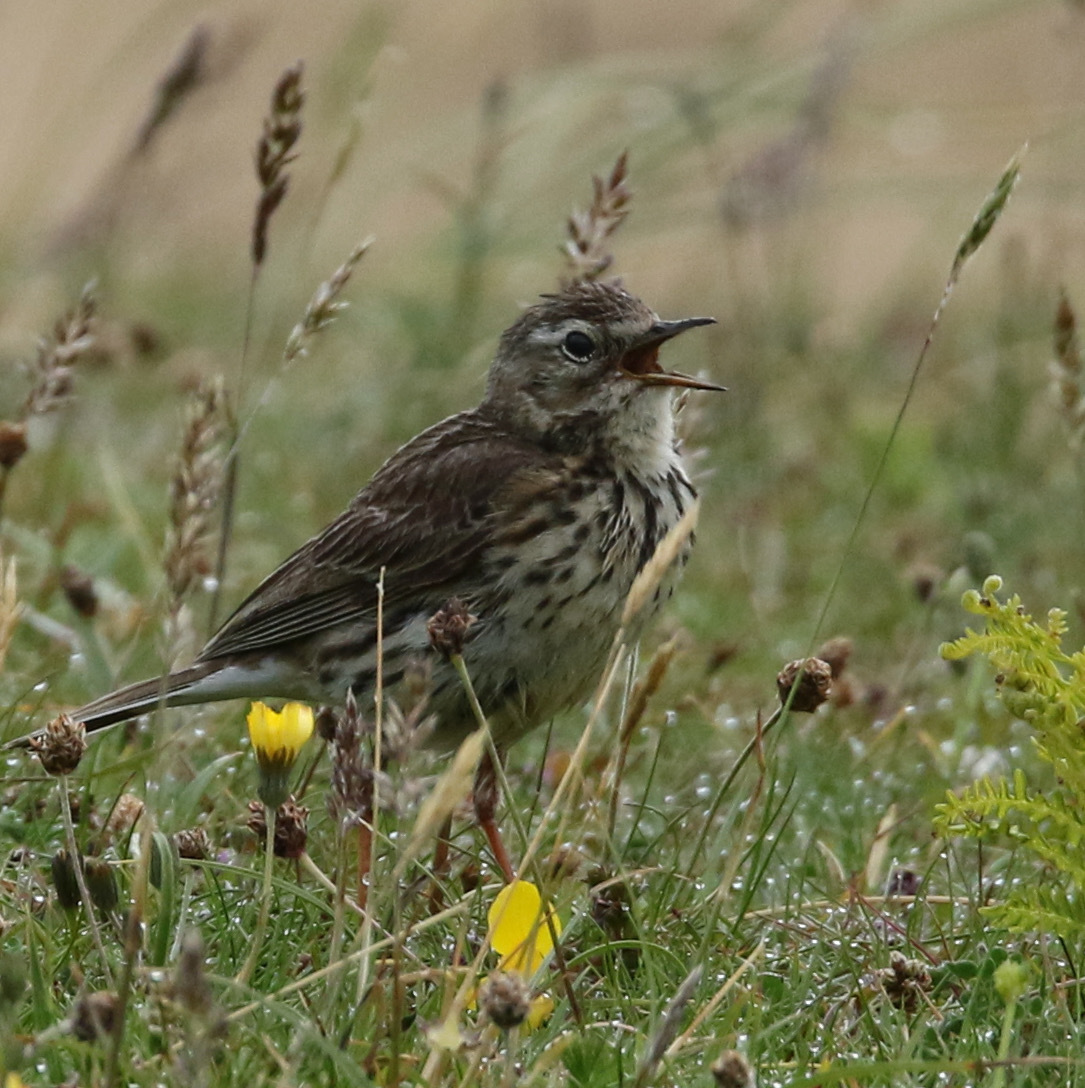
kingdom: Animalia
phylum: Chordata
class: Aves
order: Passeriformes
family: Motacillidae
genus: Anthus
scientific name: Anthus pratensis
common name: Meadow pipit
